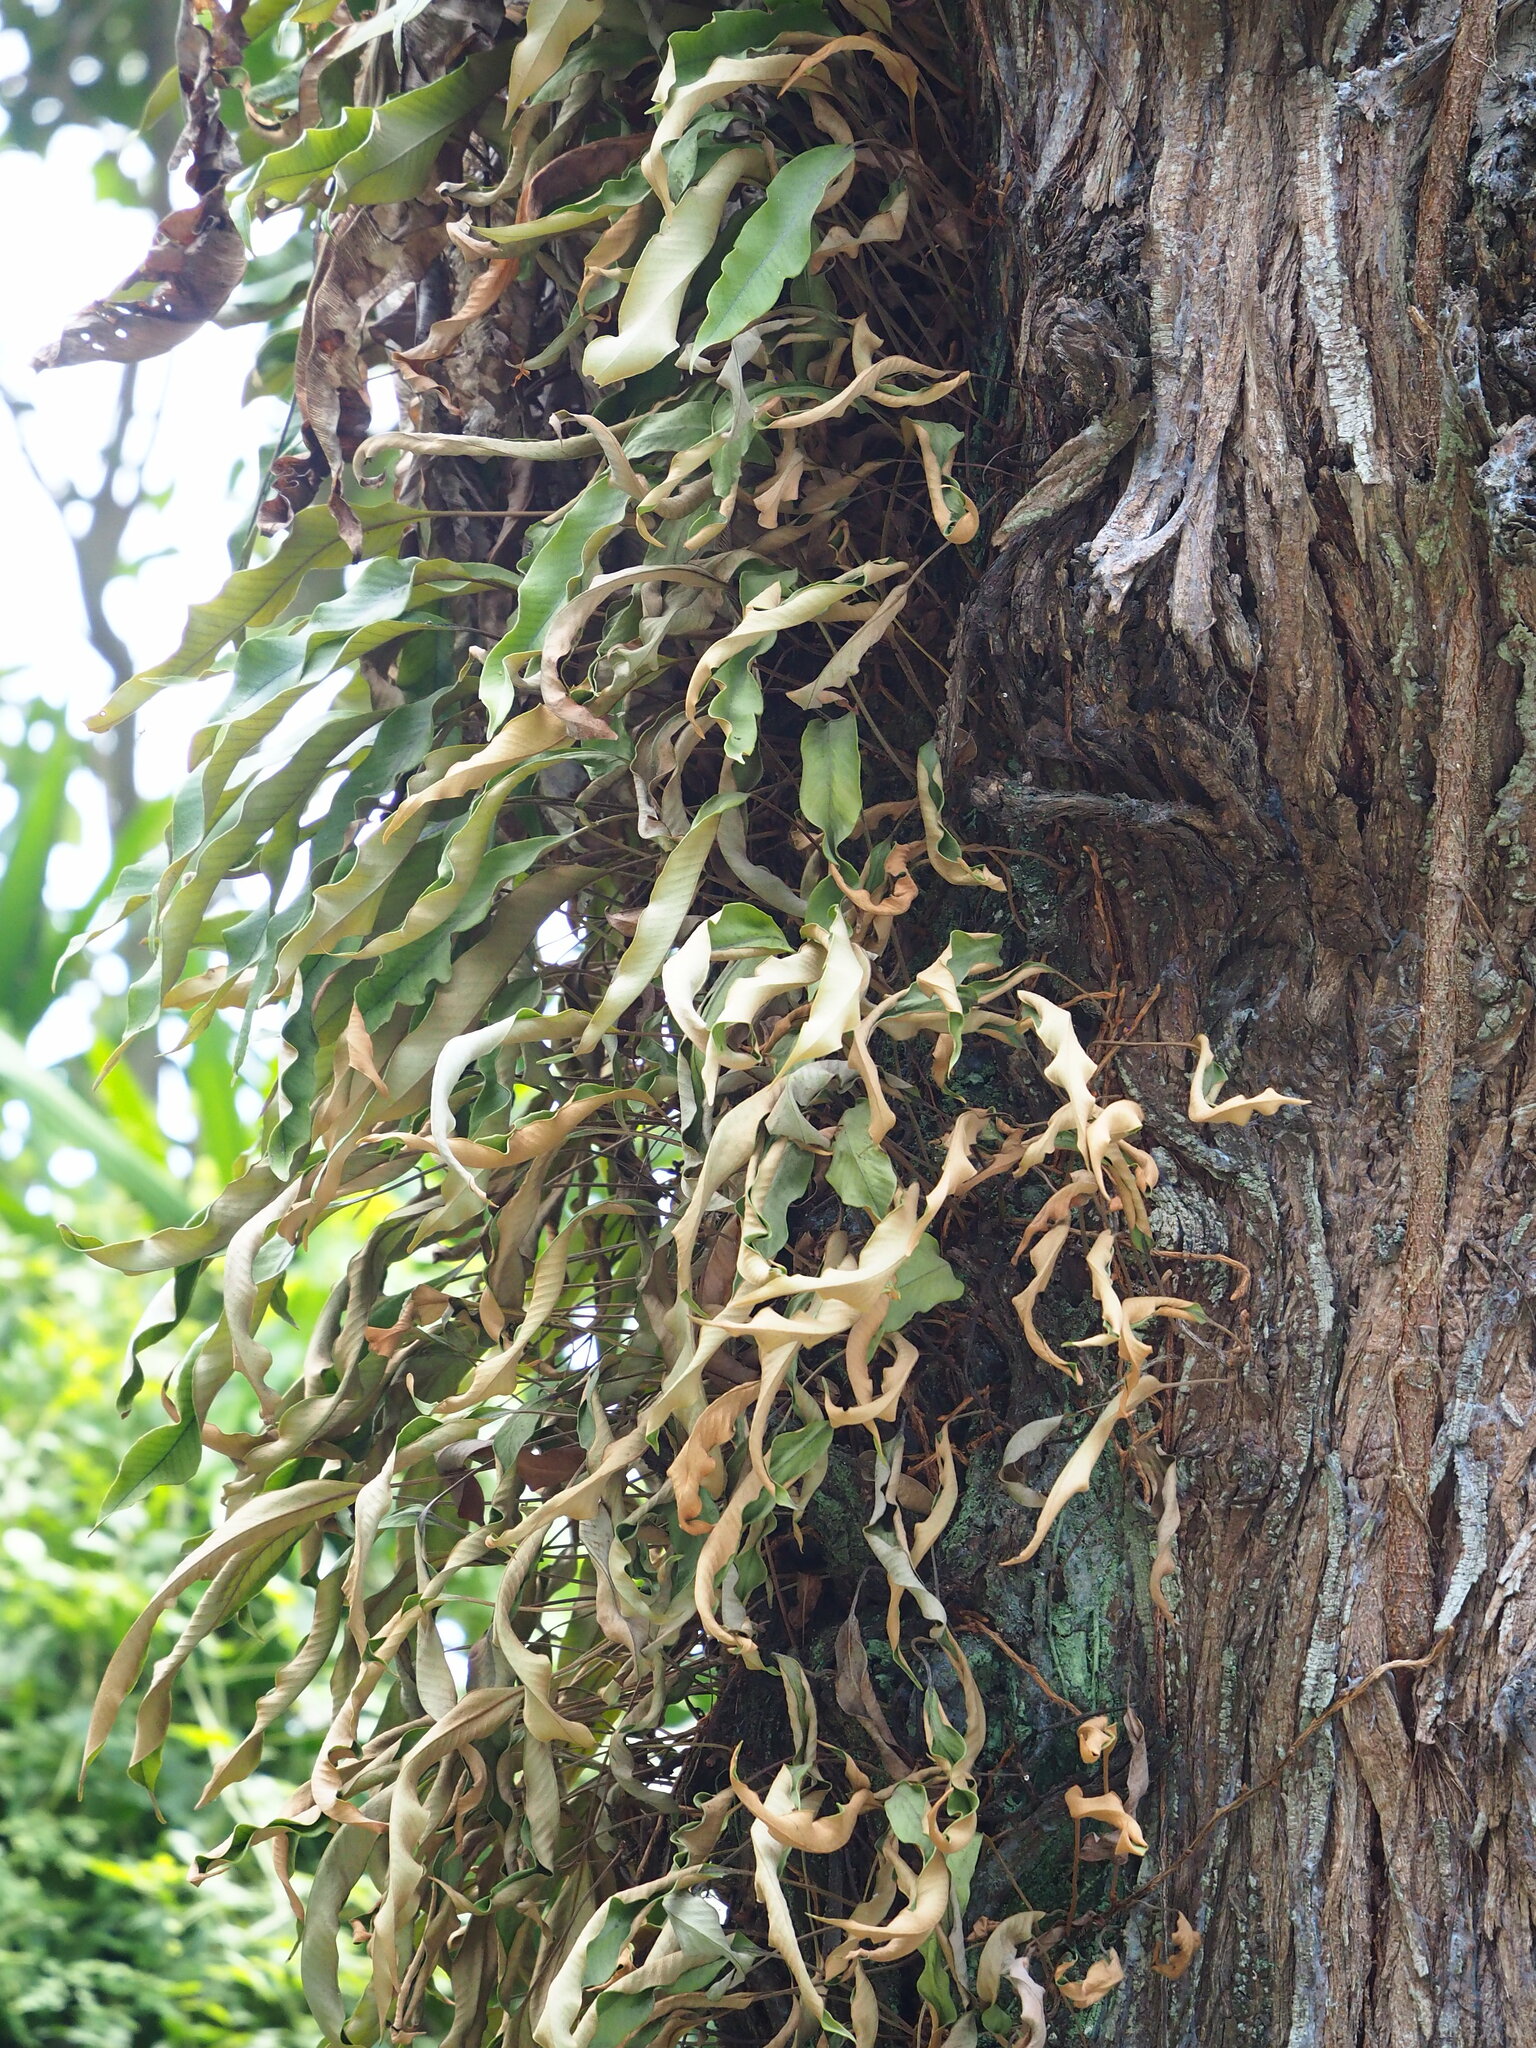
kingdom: Plantae
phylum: Tracheophyta
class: Polypodiopsida
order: Polypodiales
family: Polypodiaceae
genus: Pyrrosia
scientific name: Pyrrosia lingua
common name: Felt fern
